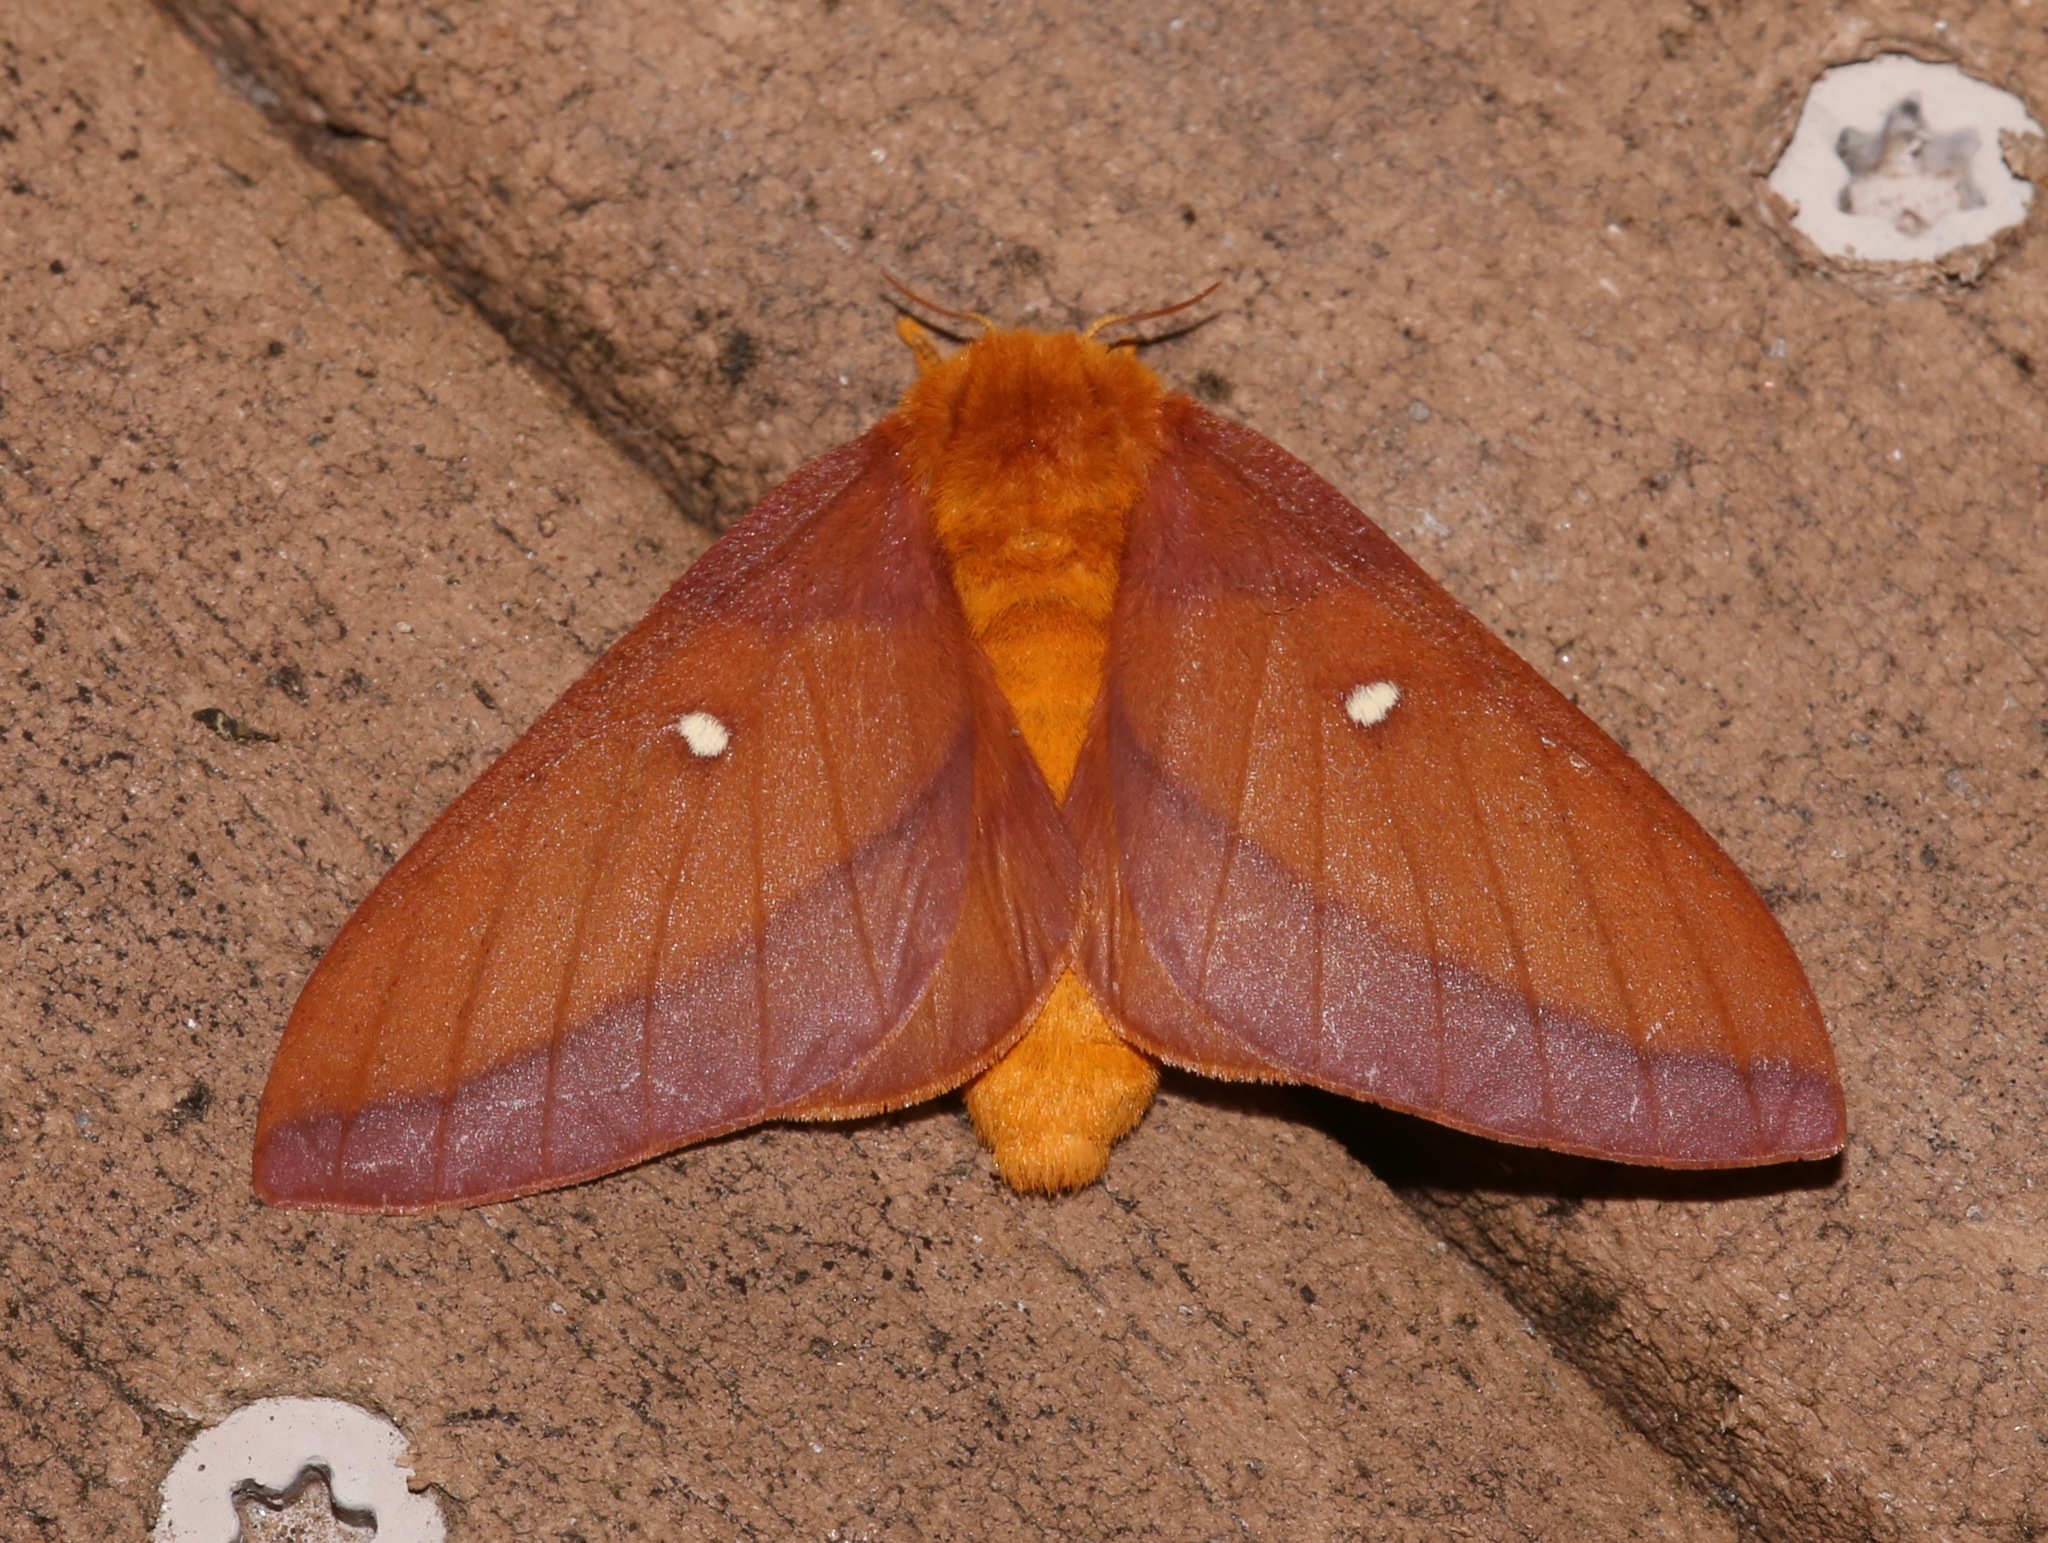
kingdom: Animalia
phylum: Arthropoda
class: Insecta
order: Lepidoptera
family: Saturniidae
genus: Anisota
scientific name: Anisota virginiensis
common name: Pink striped oakworm moth
